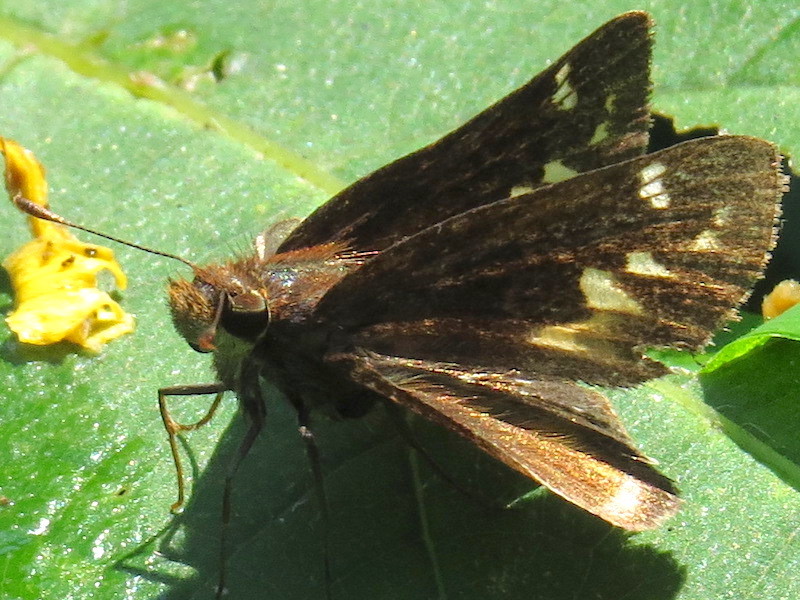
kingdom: Animalia
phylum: Arthropoda
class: Insecta
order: Lepidoptera
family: Hesperiidae
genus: Lon
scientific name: Lon zabulon
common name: Zabulon skipper
